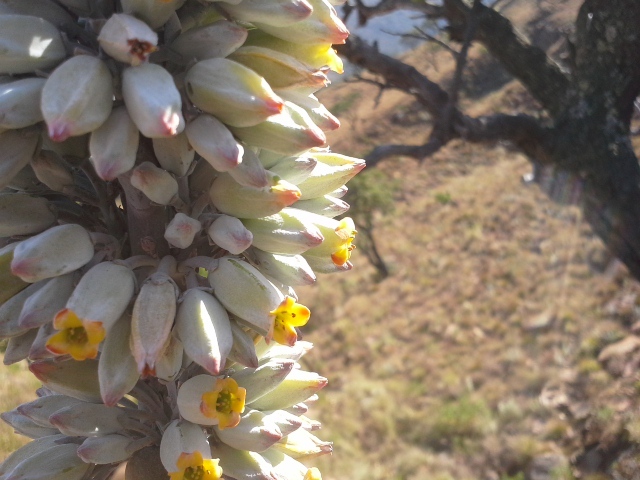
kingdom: Plantae
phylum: Tracheophyta
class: Magnoliopsida
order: Saxifragales
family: Crassulaceae
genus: Kalanchoe
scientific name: Kalanchoe thyrsiflora
